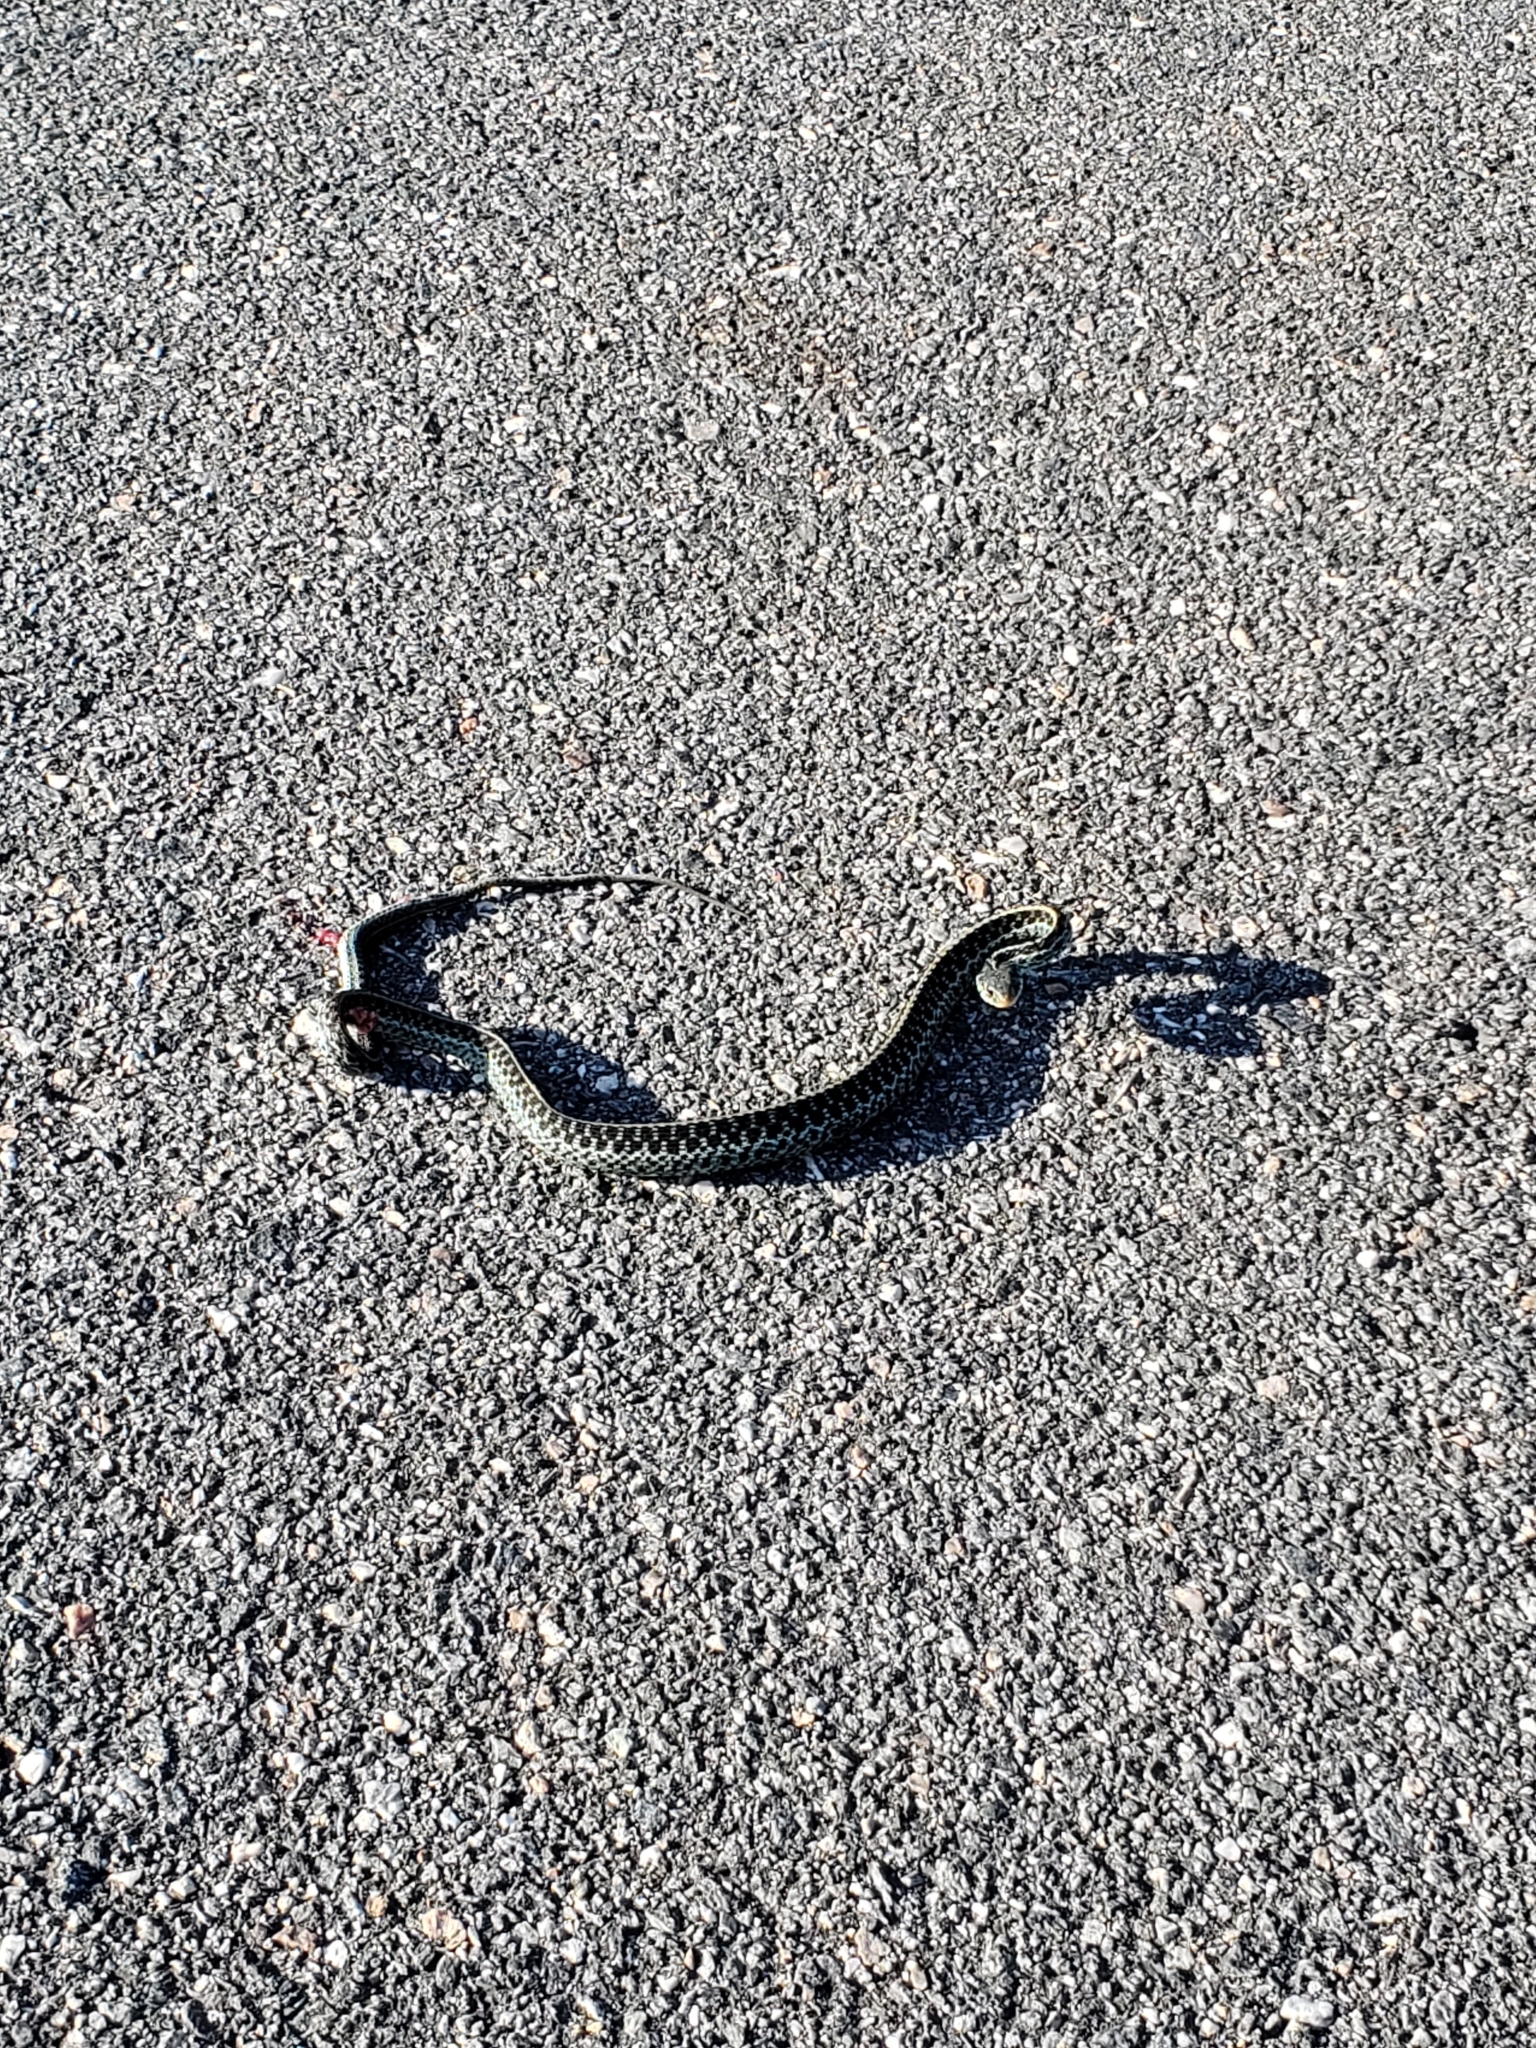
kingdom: Animalia
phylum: Chordata
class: Squamata
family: Colubridae
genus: Thamnophis
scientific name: Thamnophis sirtalis
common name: Common garter snake
